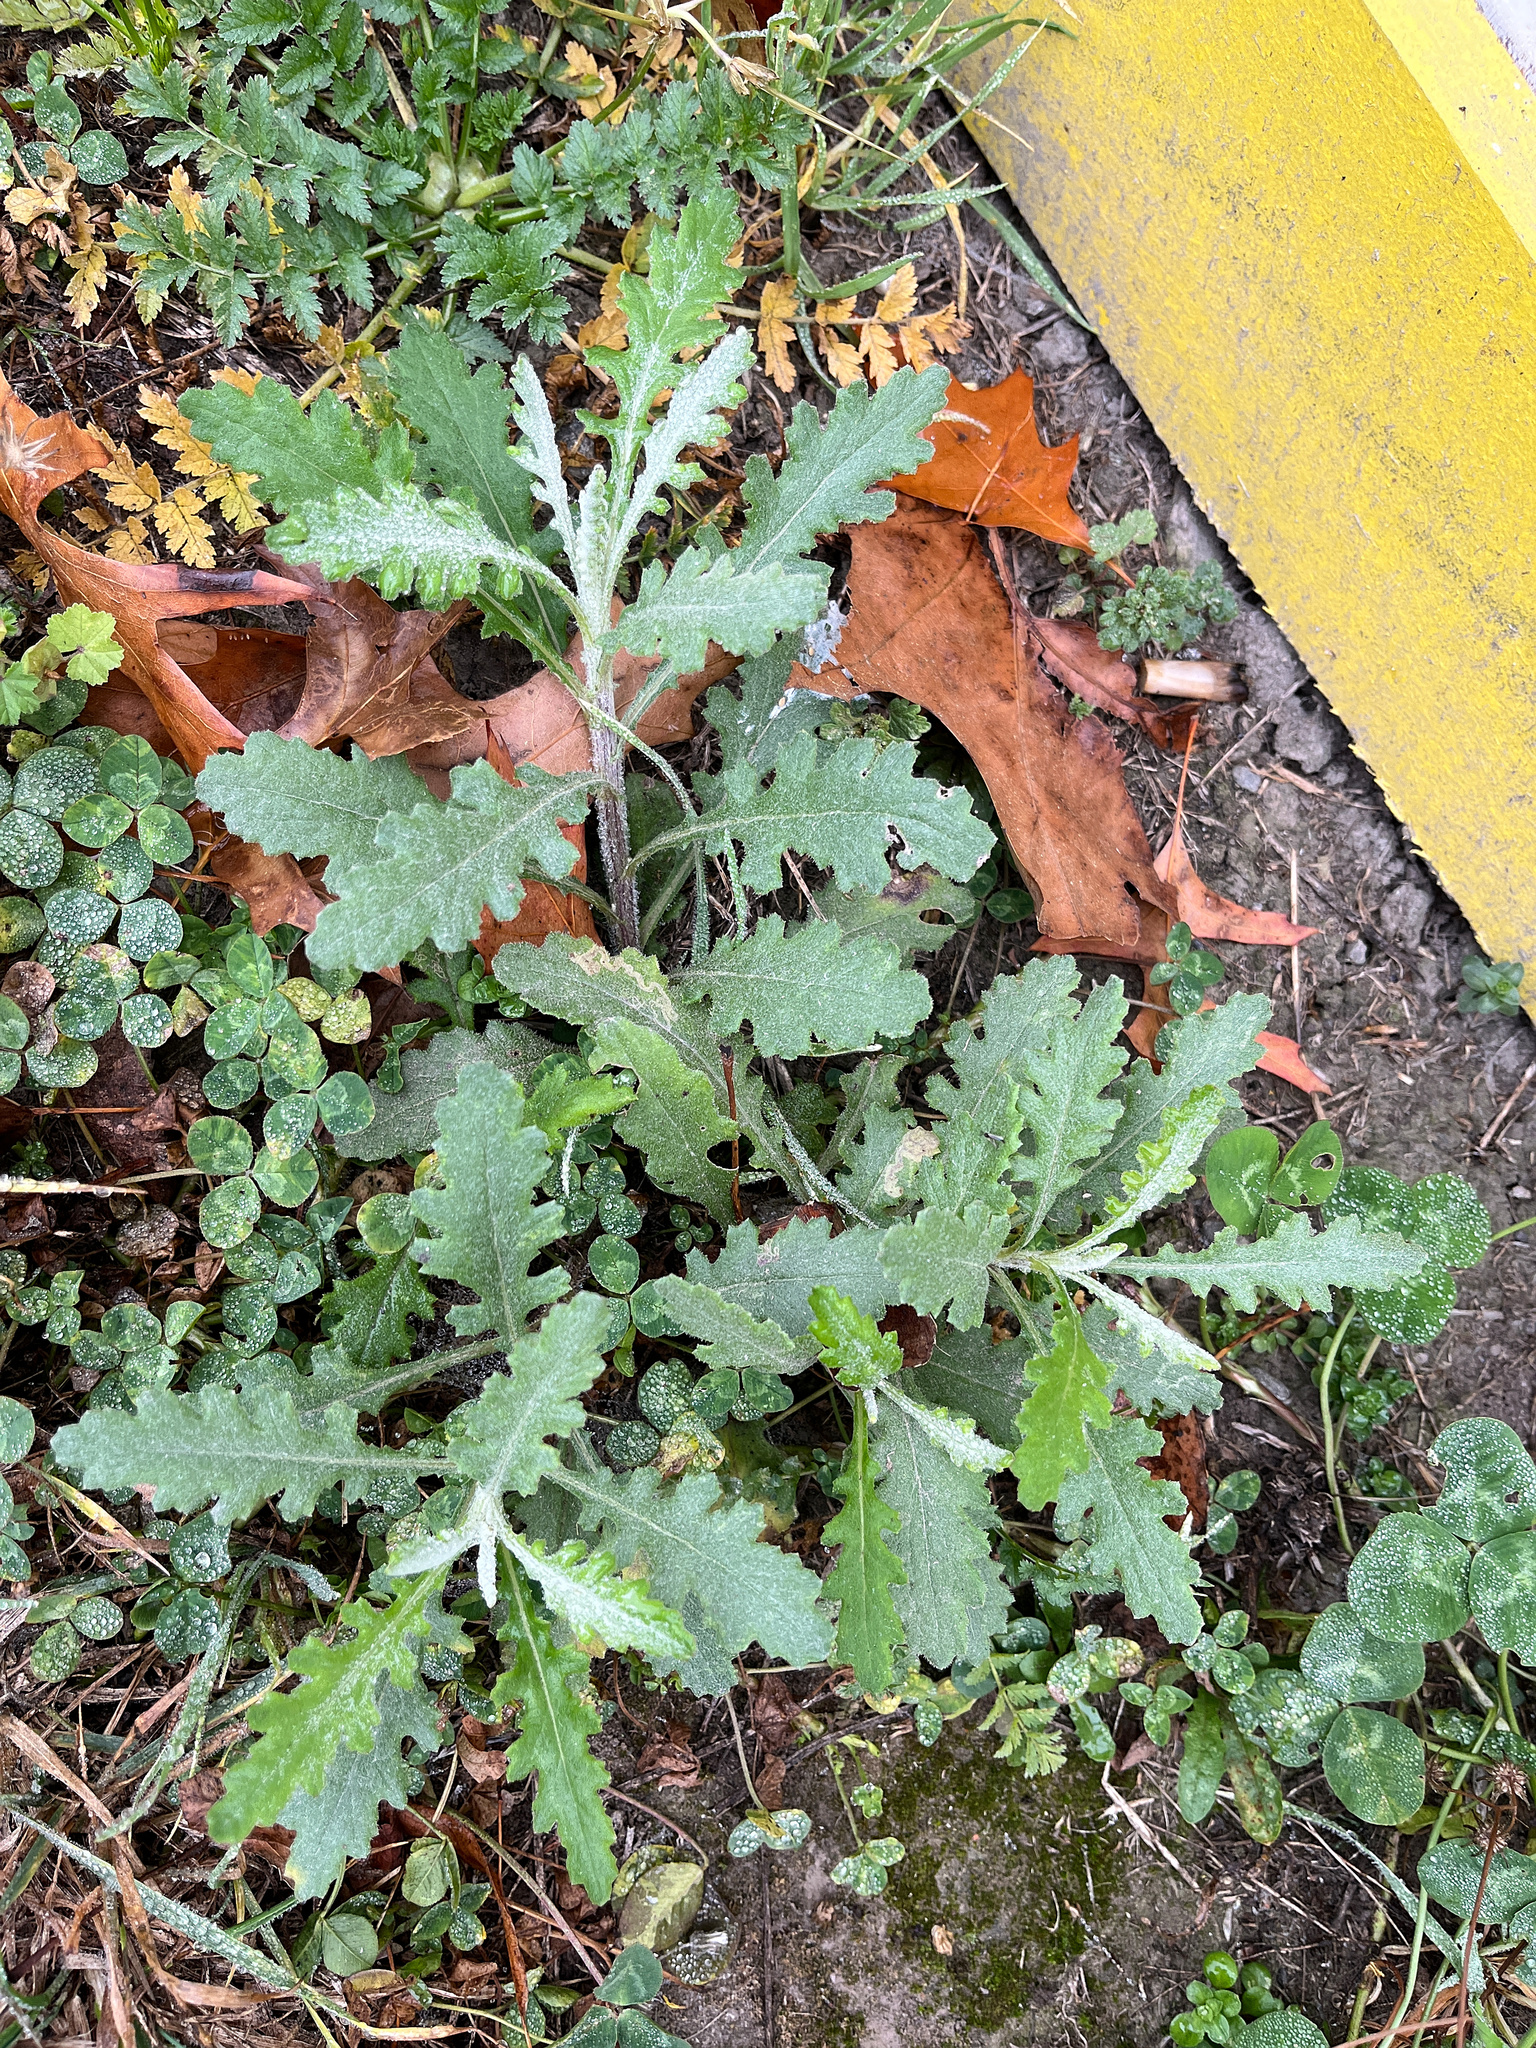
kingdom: Plantae
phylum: Tracheophyta
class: Magnoliopsida
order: Asterales
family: Asteraceae
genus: Senecio
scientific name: Senecio glomeratus
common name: Cutleaf burnweed
